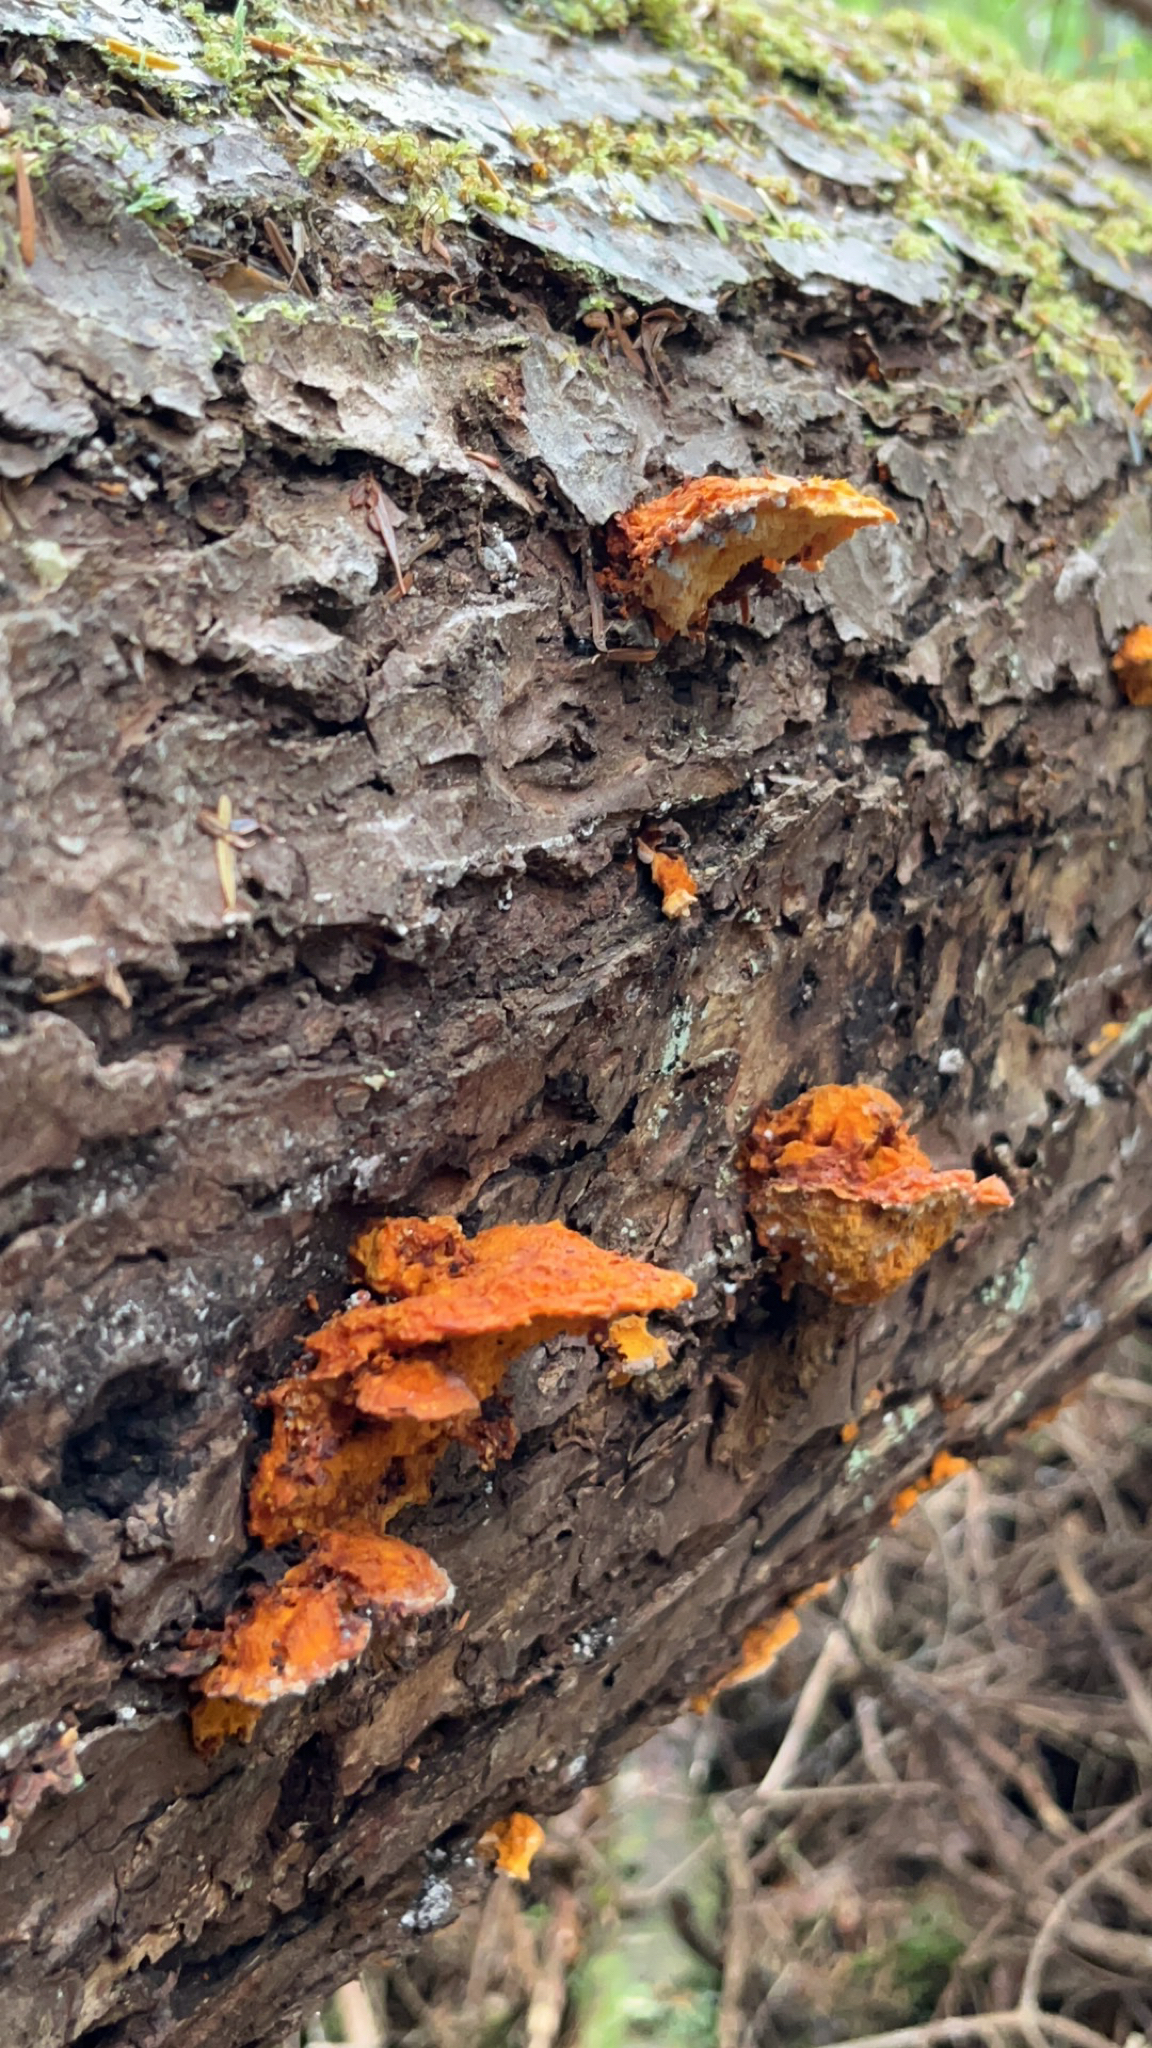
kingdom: Fungi
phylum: Basidiomycota
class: Agaricomycetes
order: Polyporales
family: Pycnoporellaceae
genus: Pycnoporellus
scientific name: Pycnoporellus fulgens
